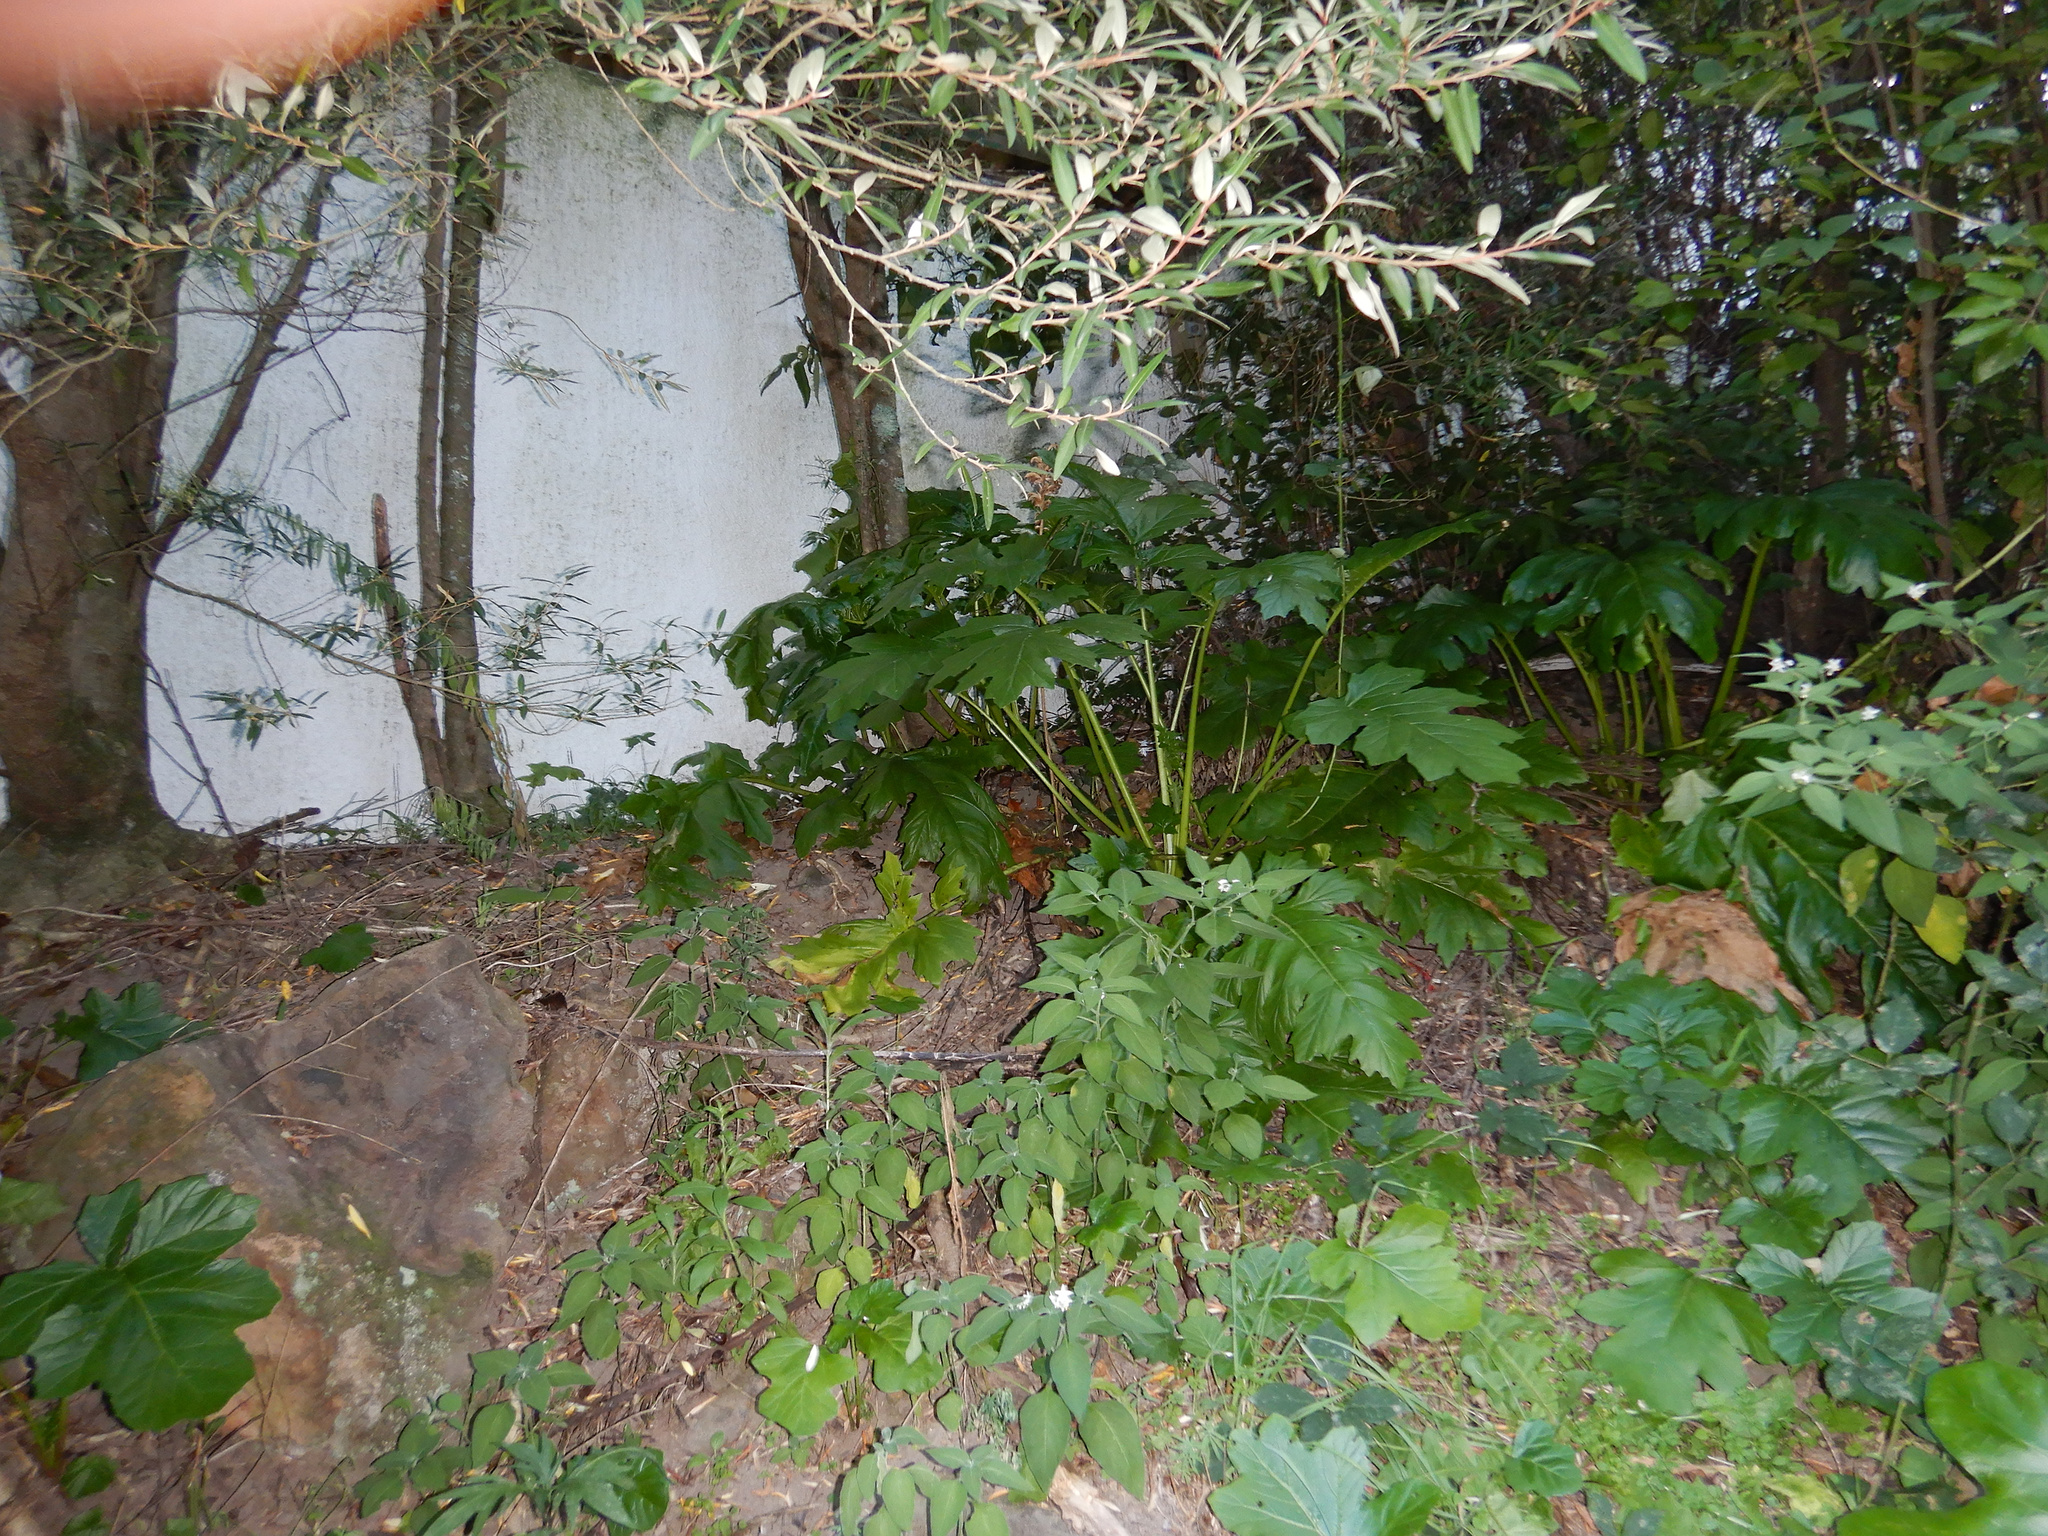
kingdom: Plantae
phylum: Tracheophyta
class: Magnoliopsida
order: Lamiales
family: Acanthaceae
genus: Acanthus
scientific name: Acanthus mollis
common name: Bear's-breech
